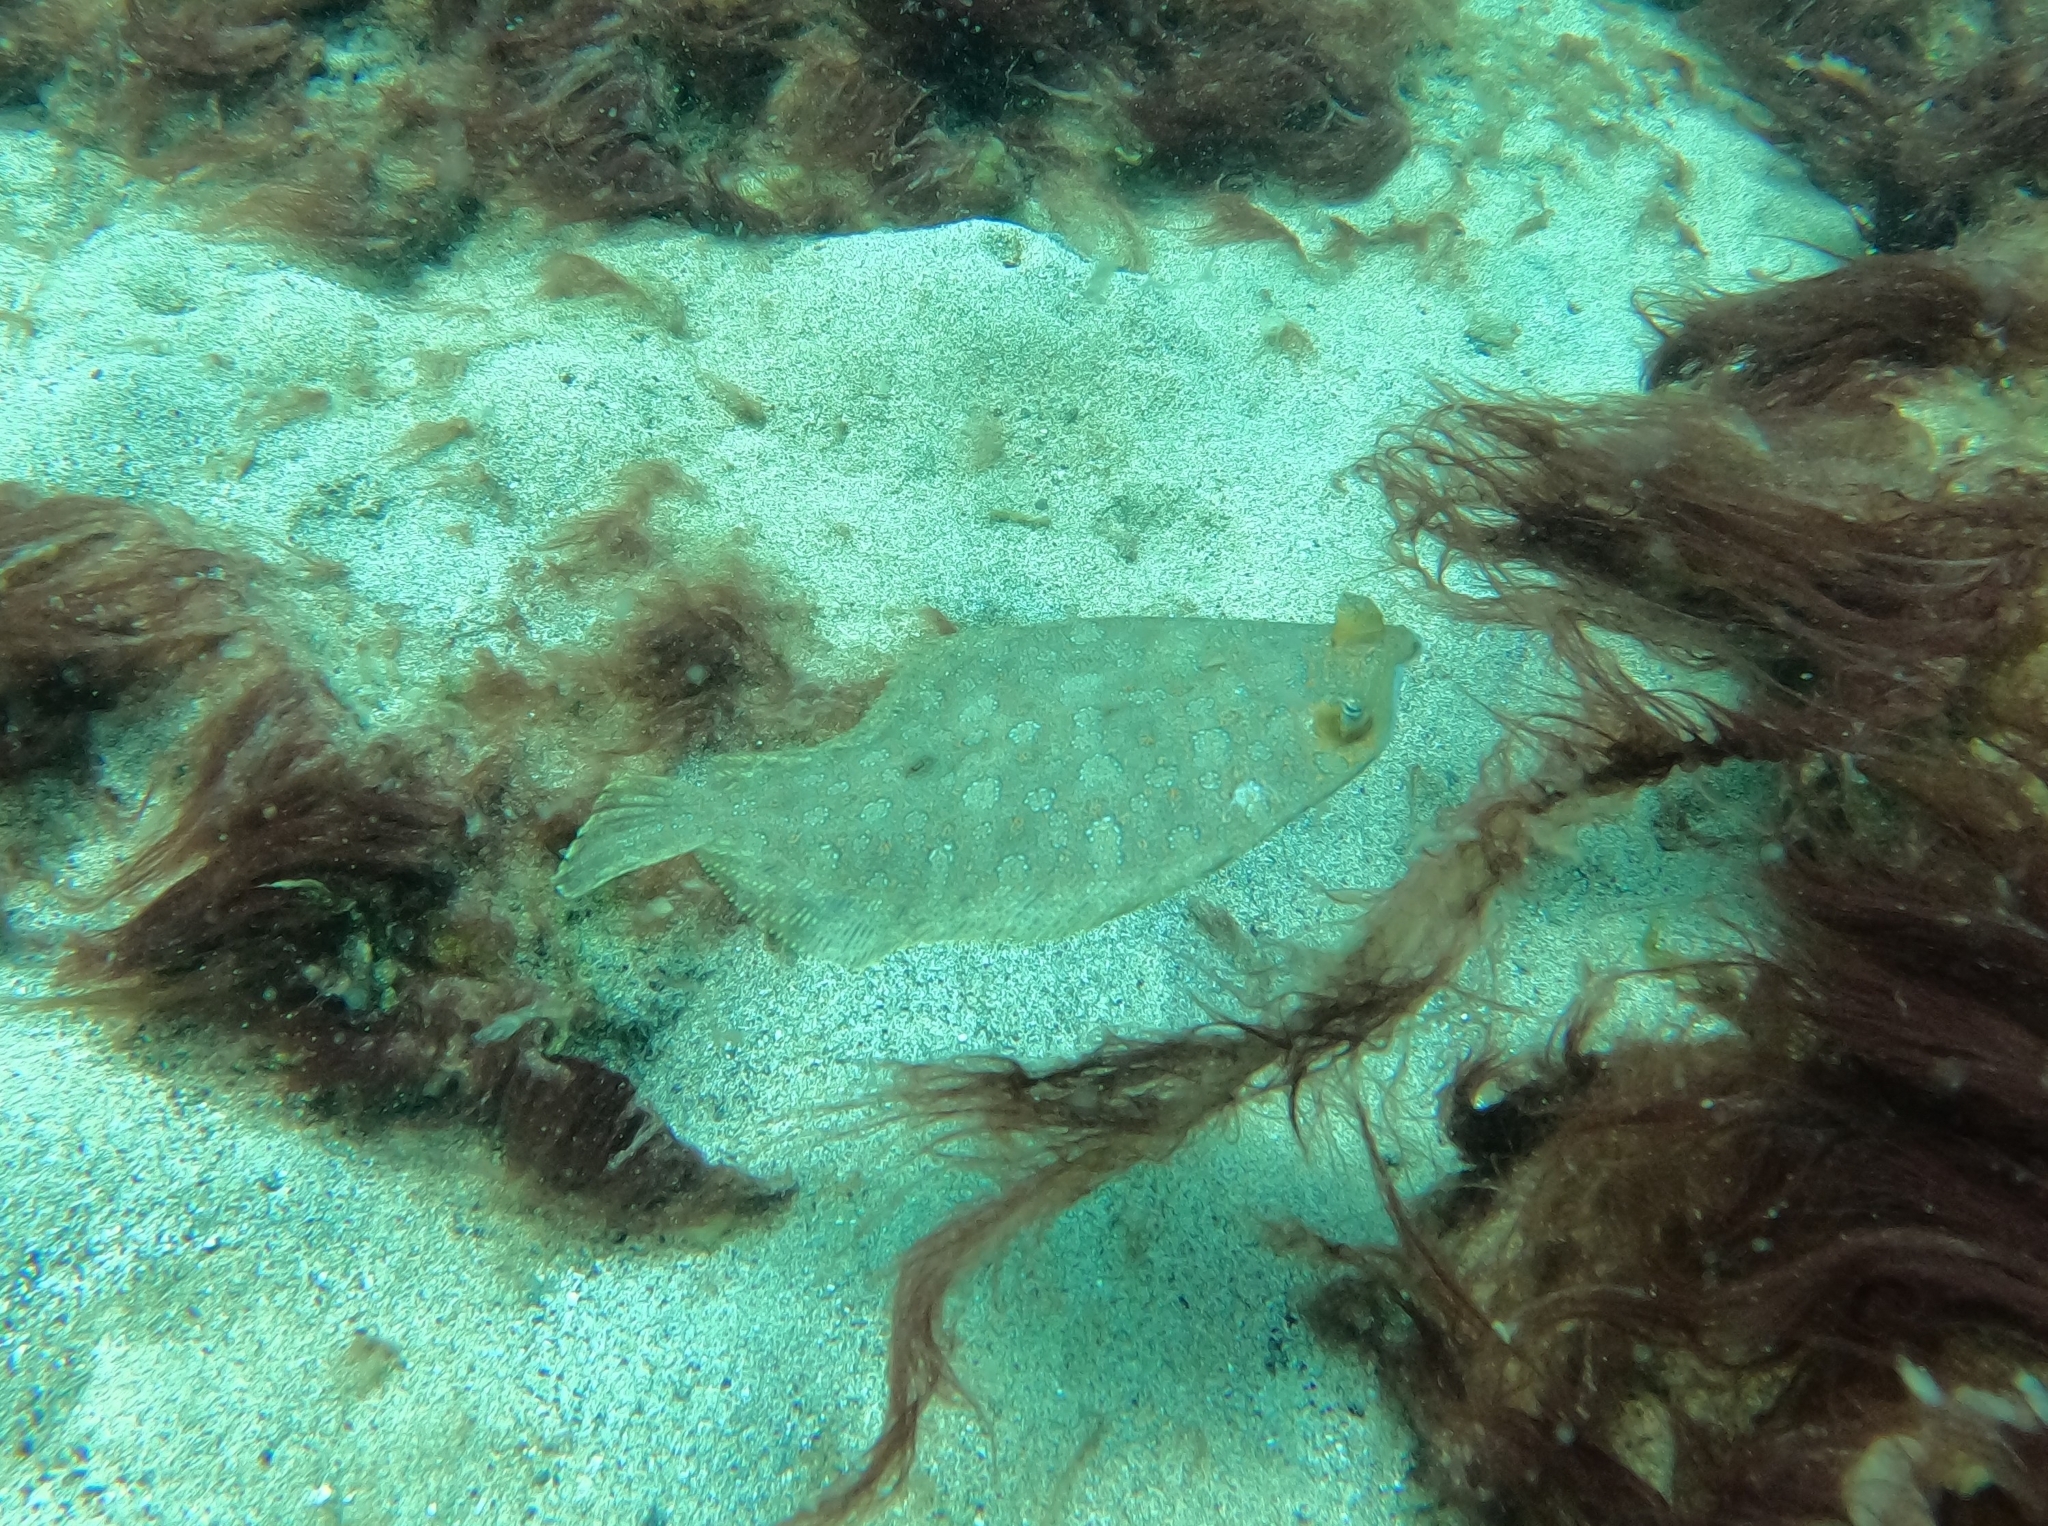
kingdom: Animalia
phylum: Chordata
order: Pleuronectiformes
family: Bothidae
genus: Bothus
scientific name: Bothus podas
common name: Wide-eyed flounder
